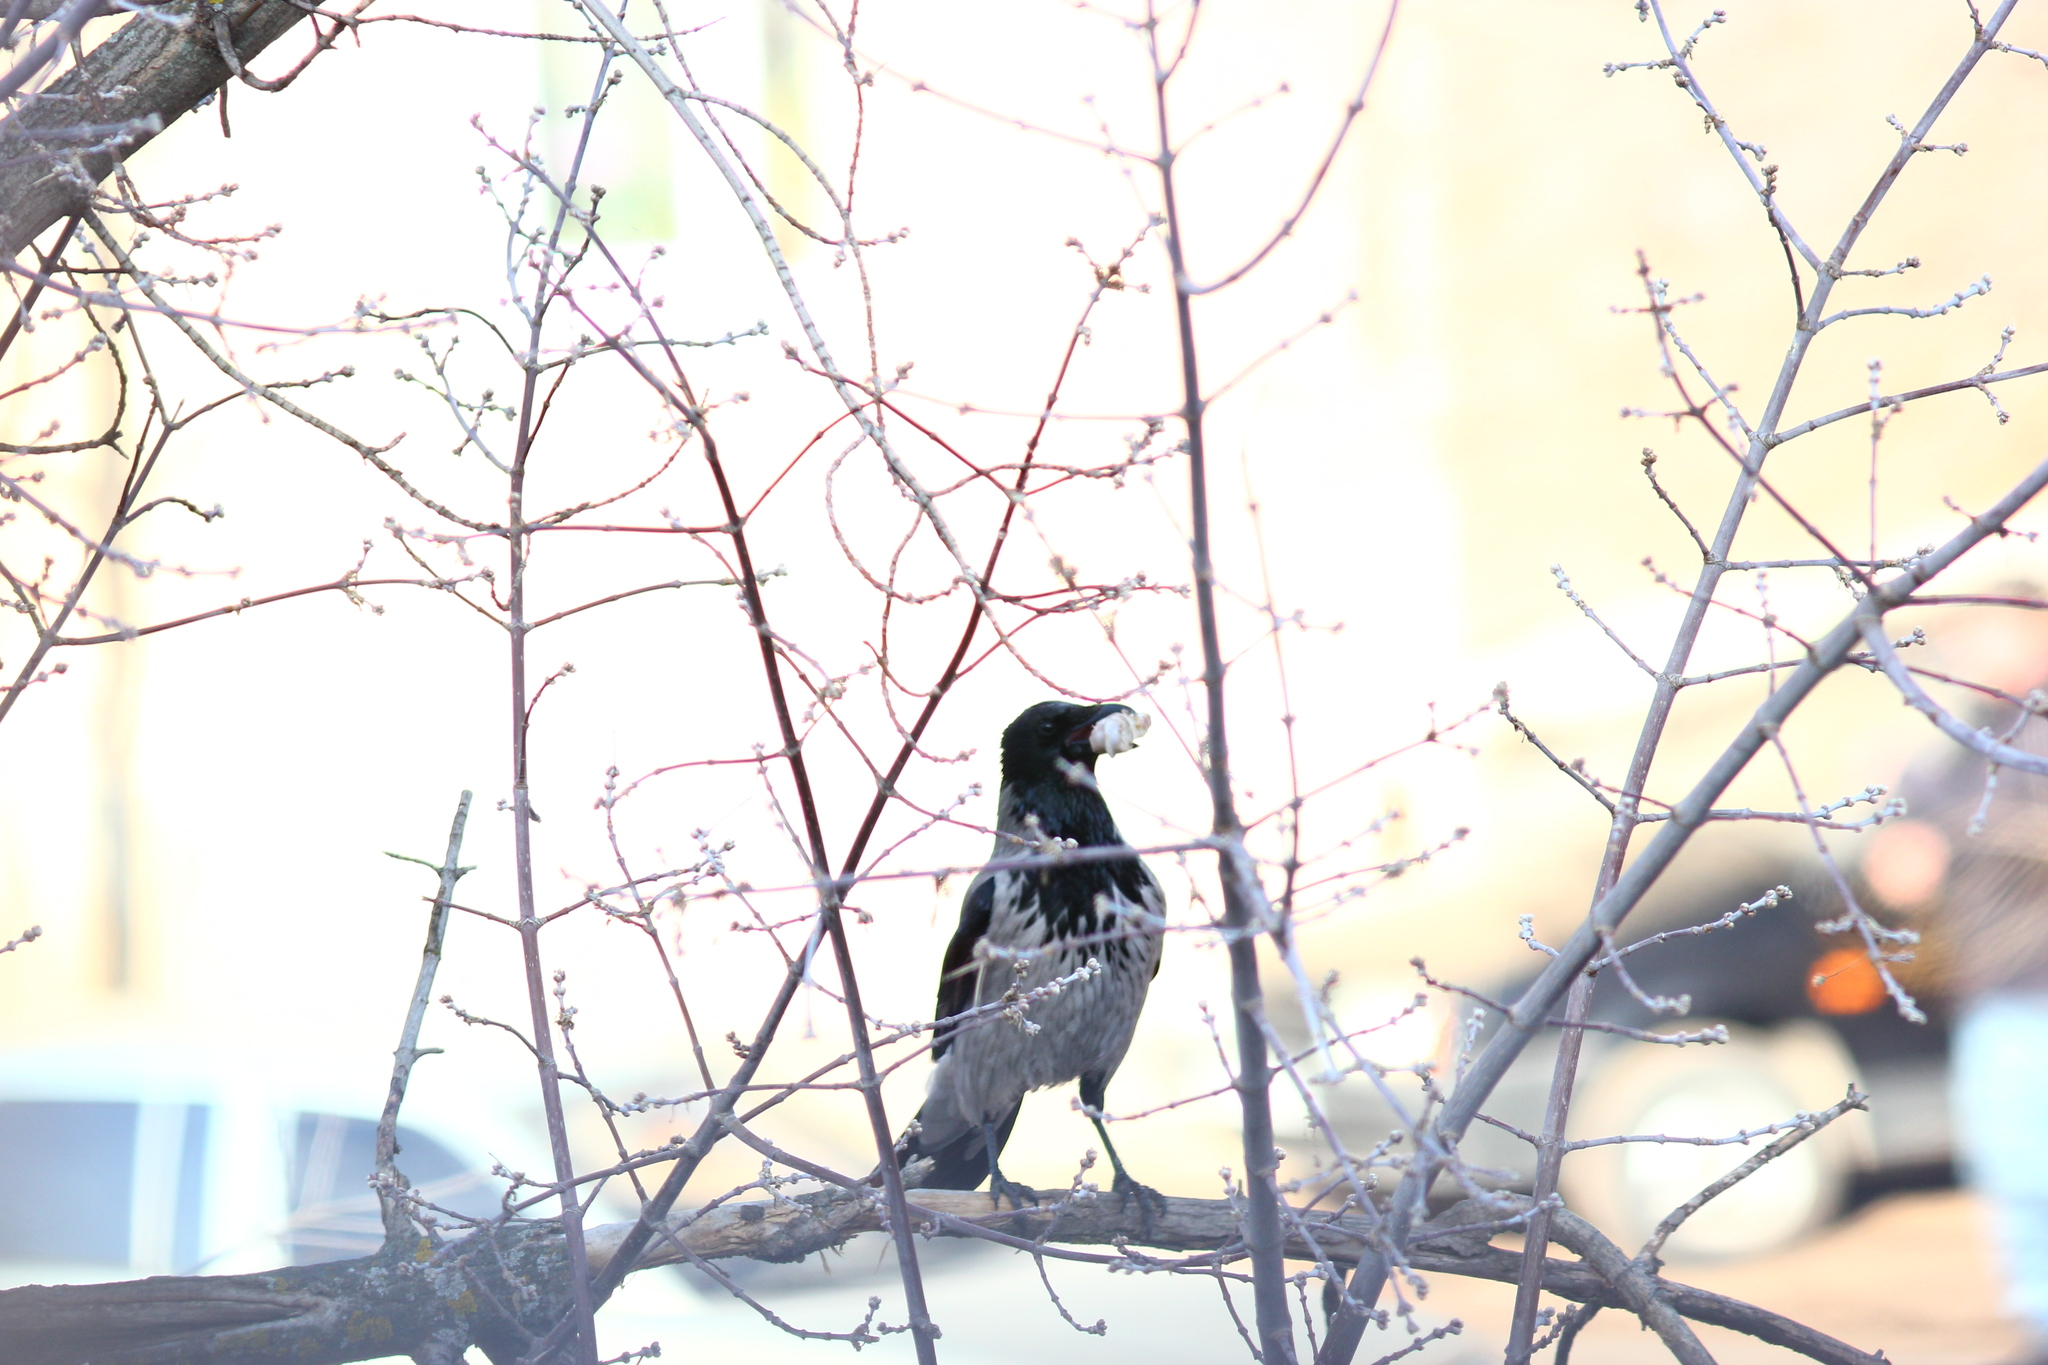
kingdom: Animalia
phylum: Chordata
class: Aves
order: Passeriformes
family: Corvidae
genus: Corvus
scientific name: Corvus cornix
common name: Hooded crow
